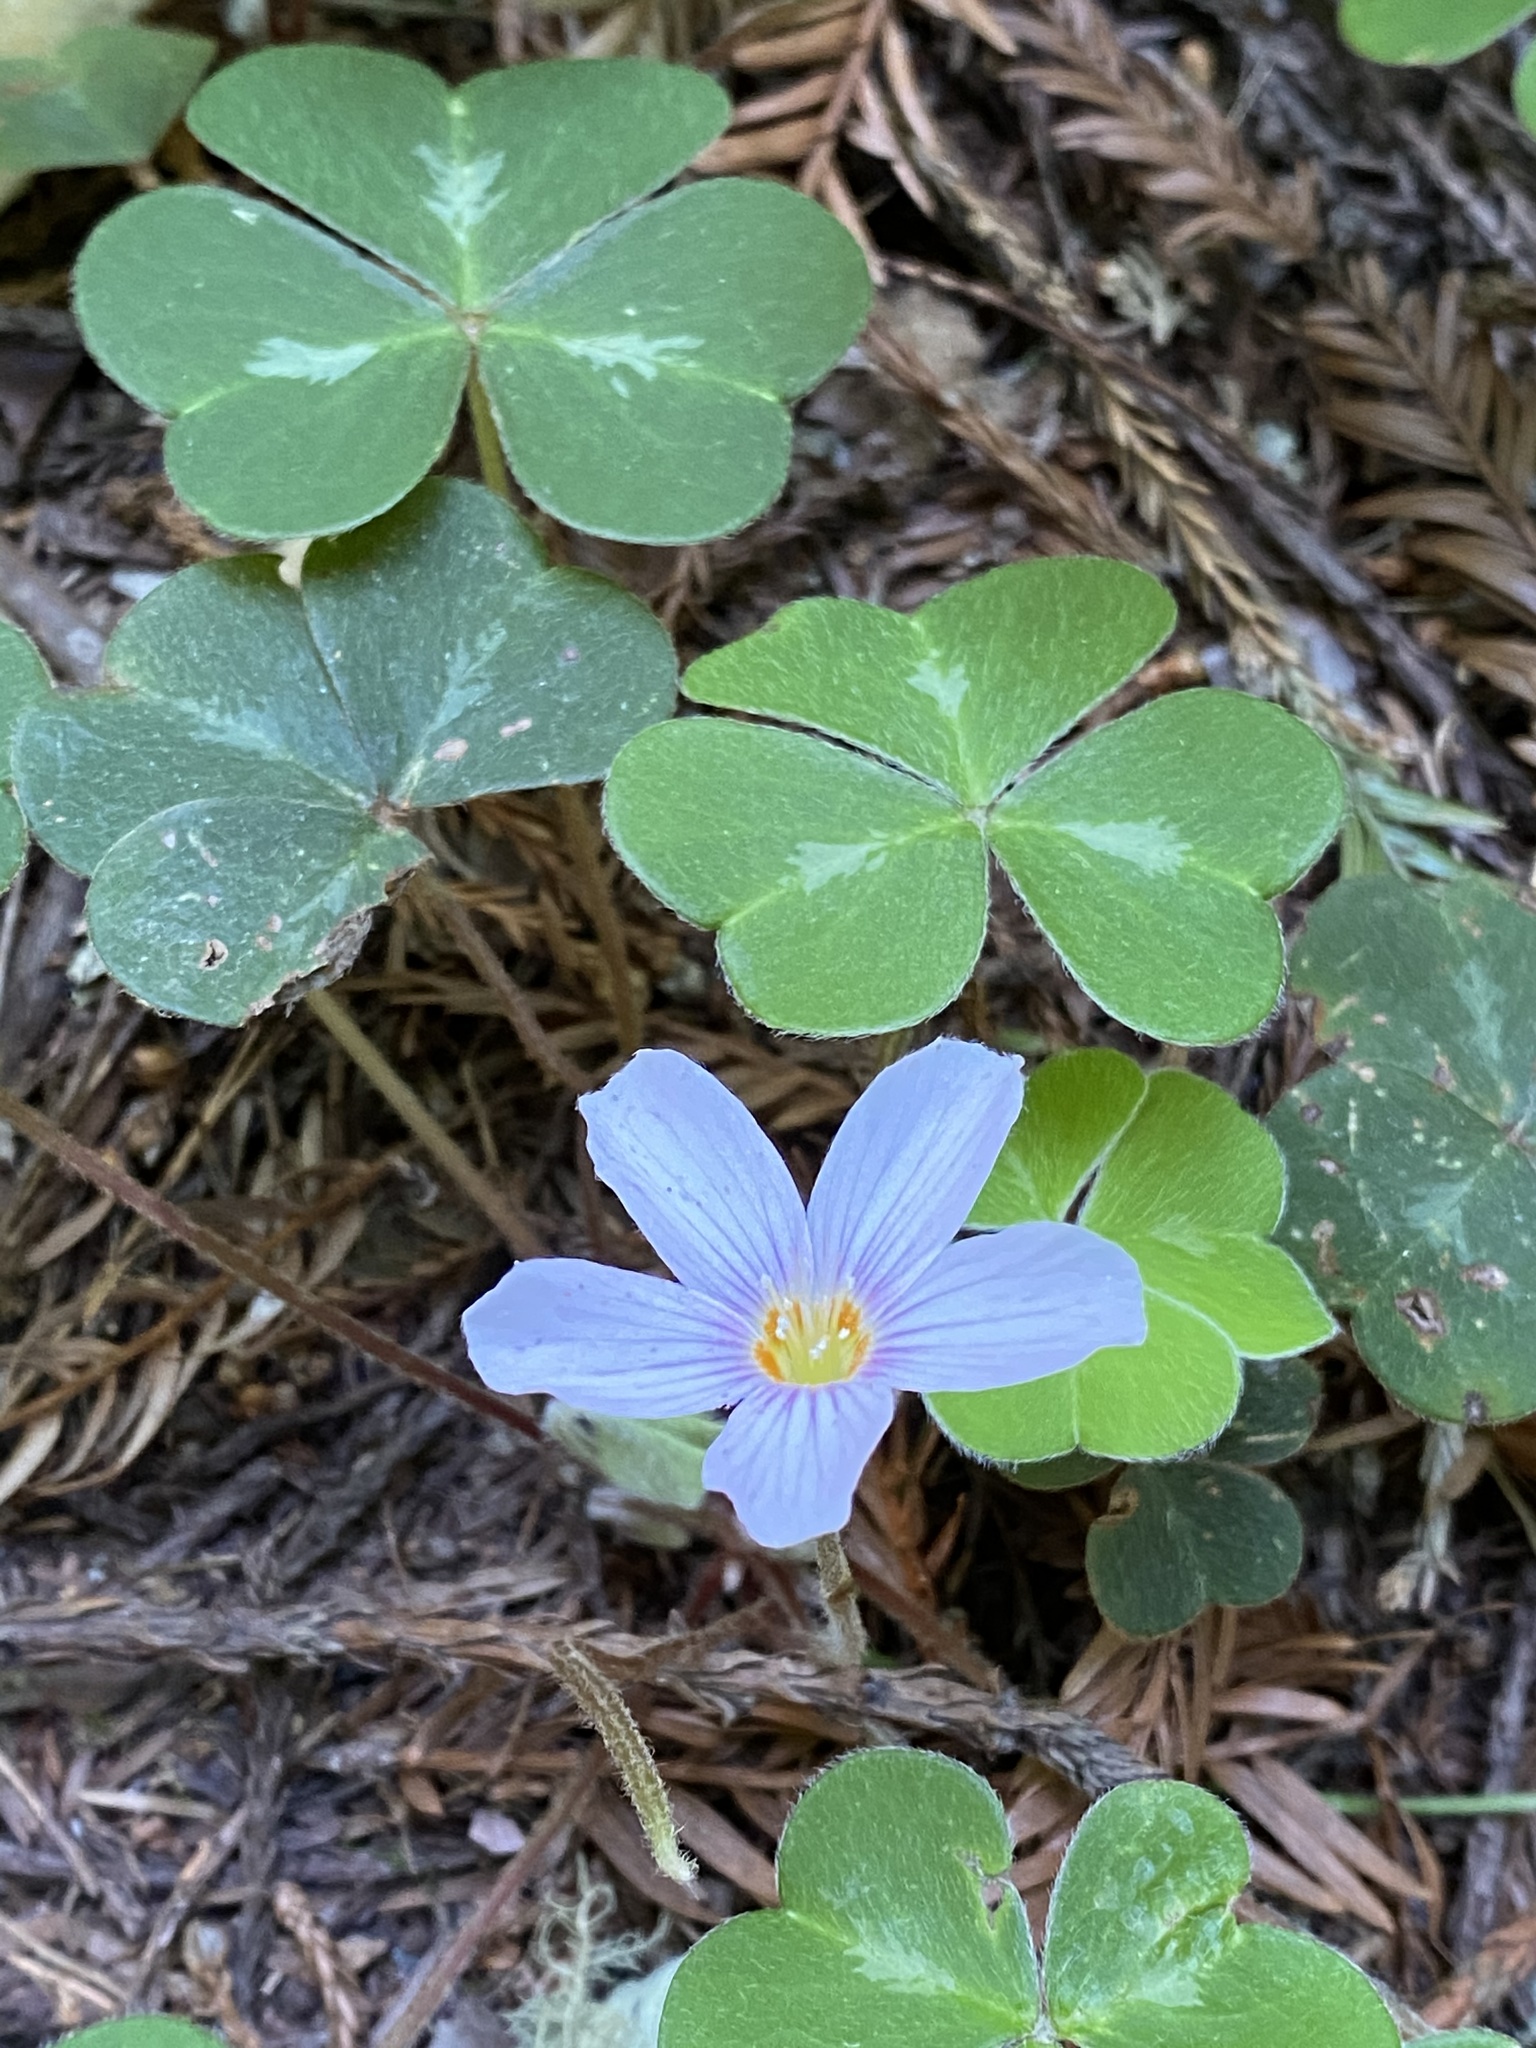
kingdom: Plantae
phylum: Tracheophyta
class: Magnoliopsida
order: Oxalidales
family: Oxalidaceae
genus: Oxalis
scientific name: Oxalis oregana
